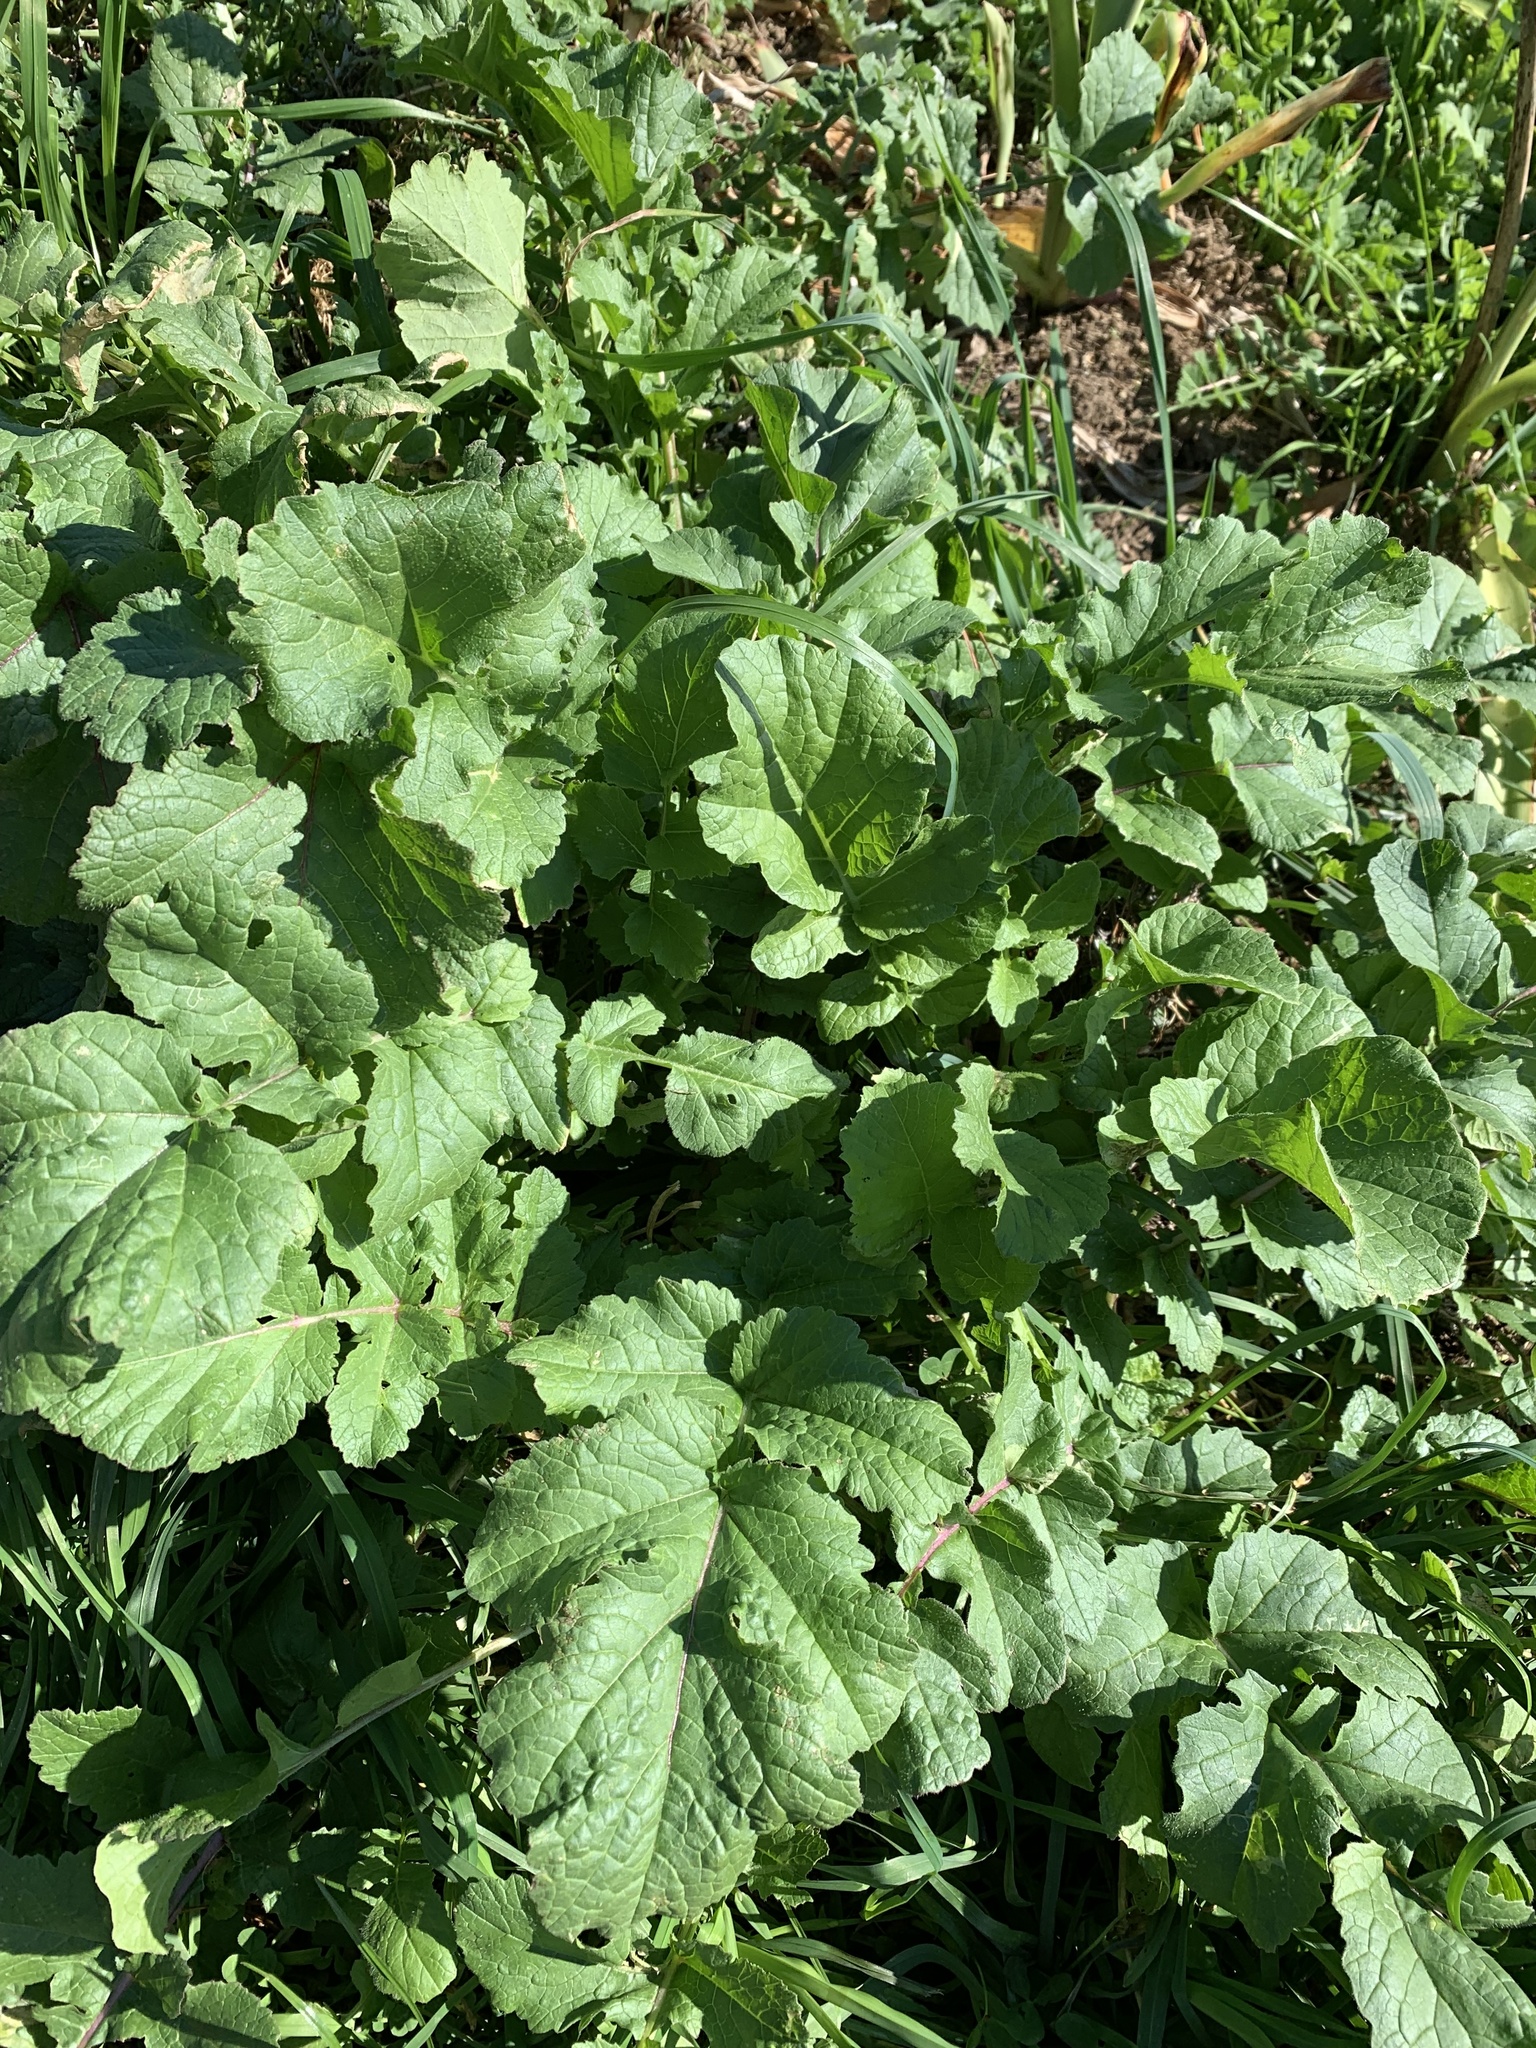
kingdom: Plantae
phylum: Tracheophyta
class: Magnoliopsida
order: Brassicales
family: Brassicaceae
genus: Raphanus
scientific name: Raphanus raphanistrum
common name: Wild radish
